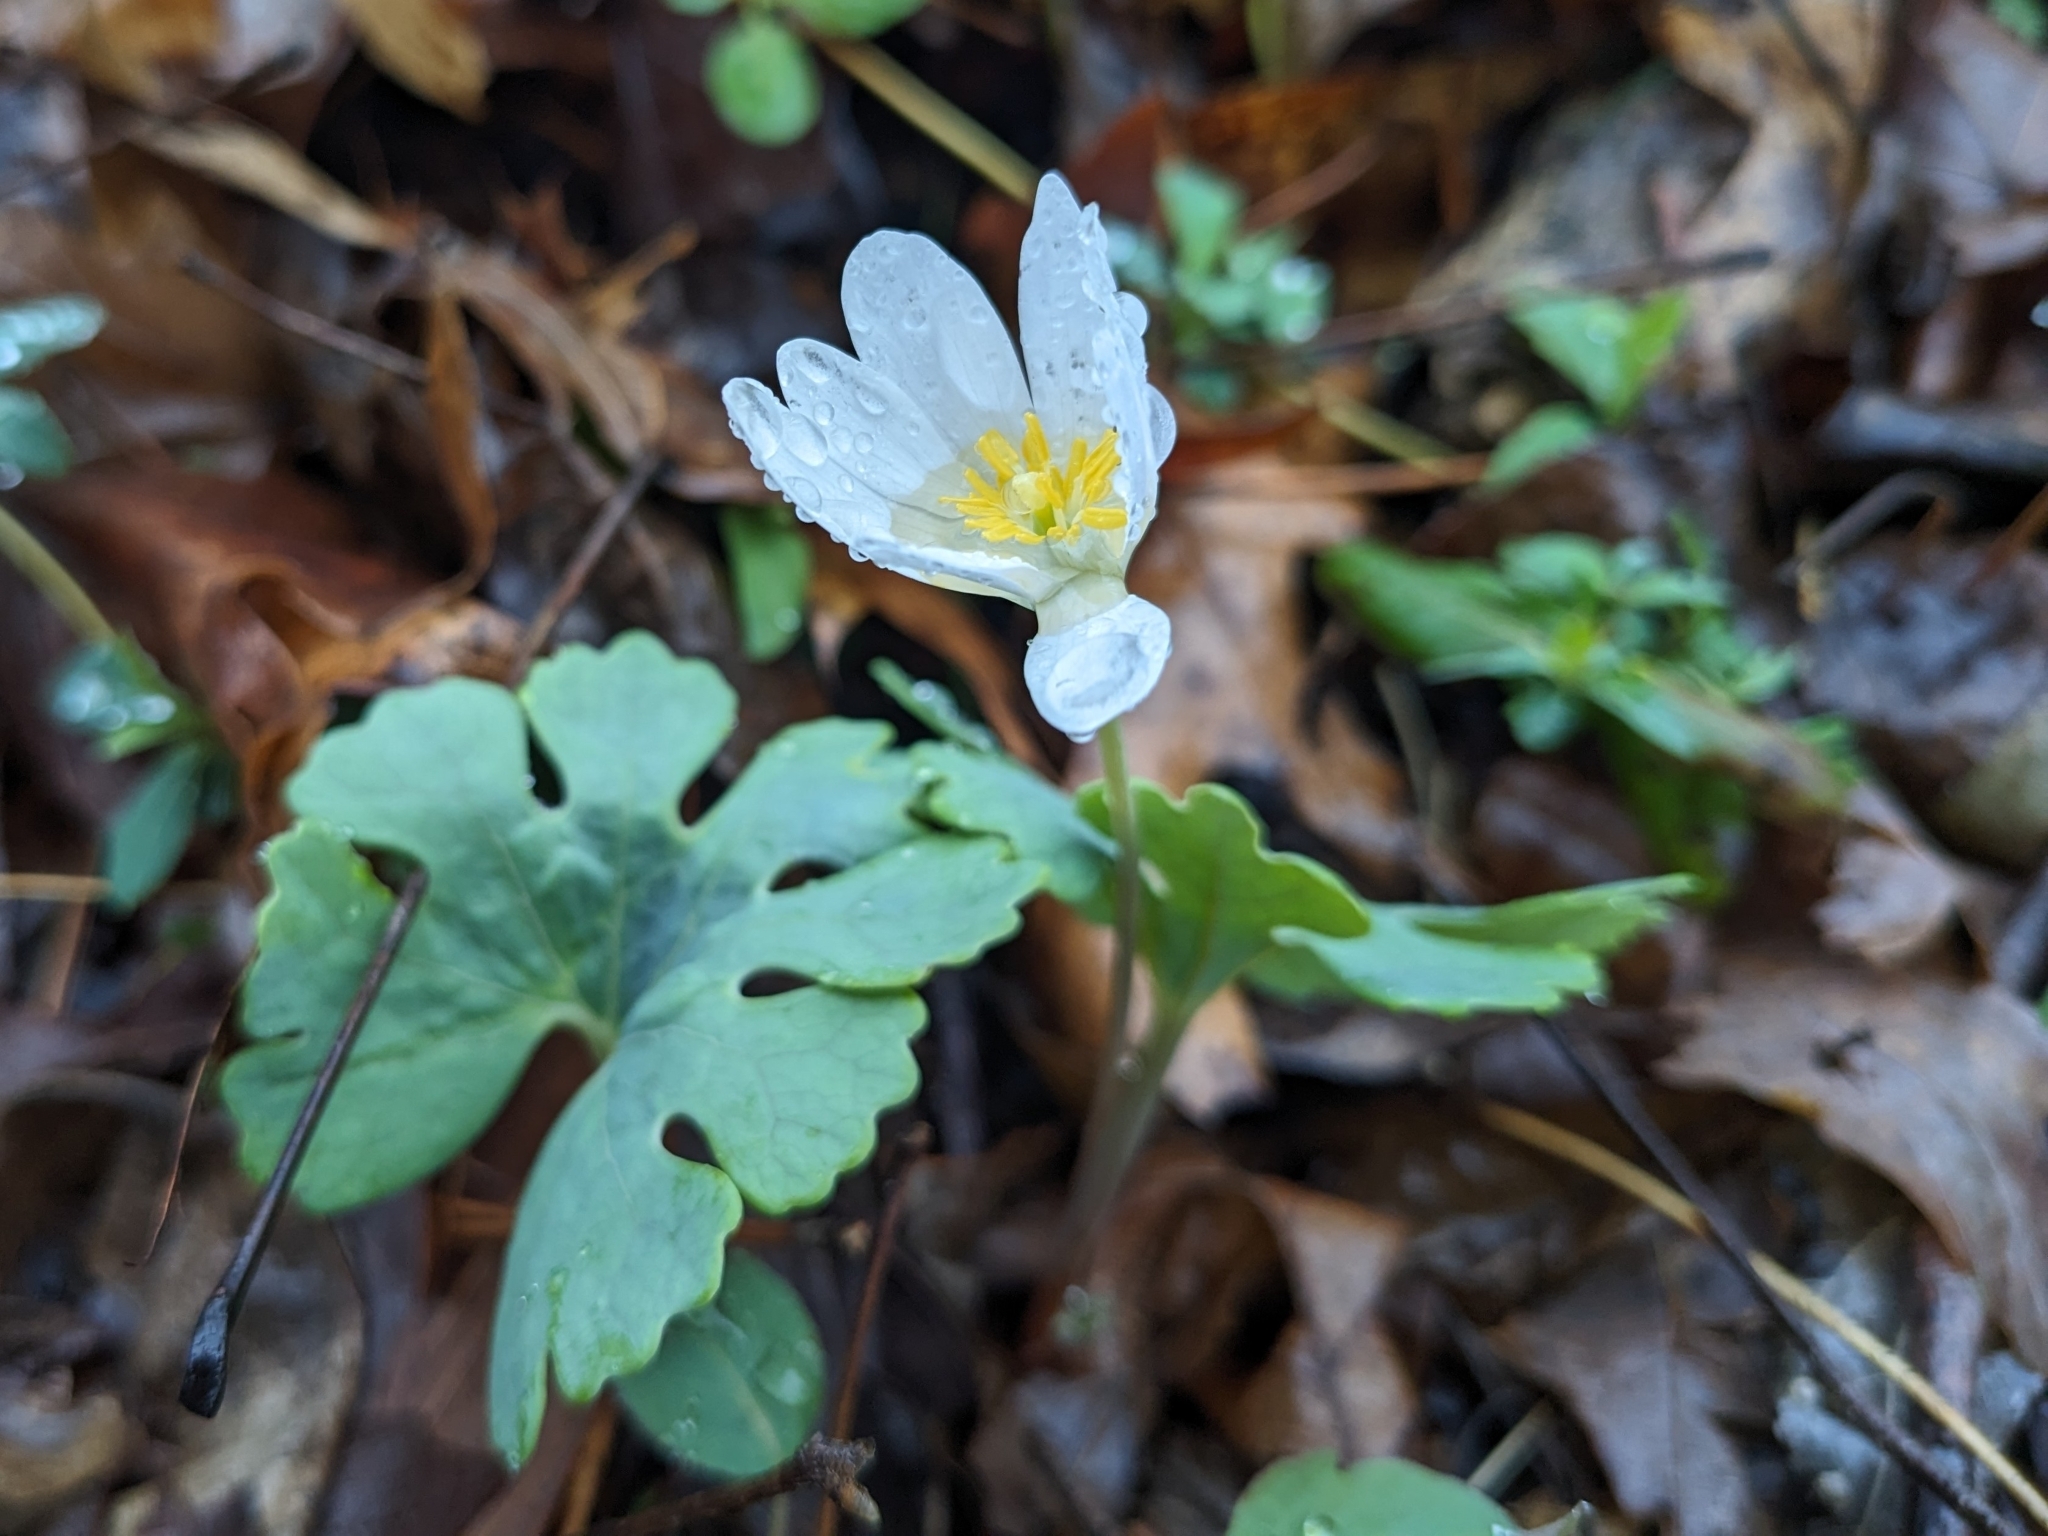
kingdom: Plantae
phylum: Tracheophyta
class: Magnoliopsida
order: Ranunculales
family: Papaveraceae
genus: Sanguinaria
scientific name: Sanguinaria canadensis
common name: Bloodroot
